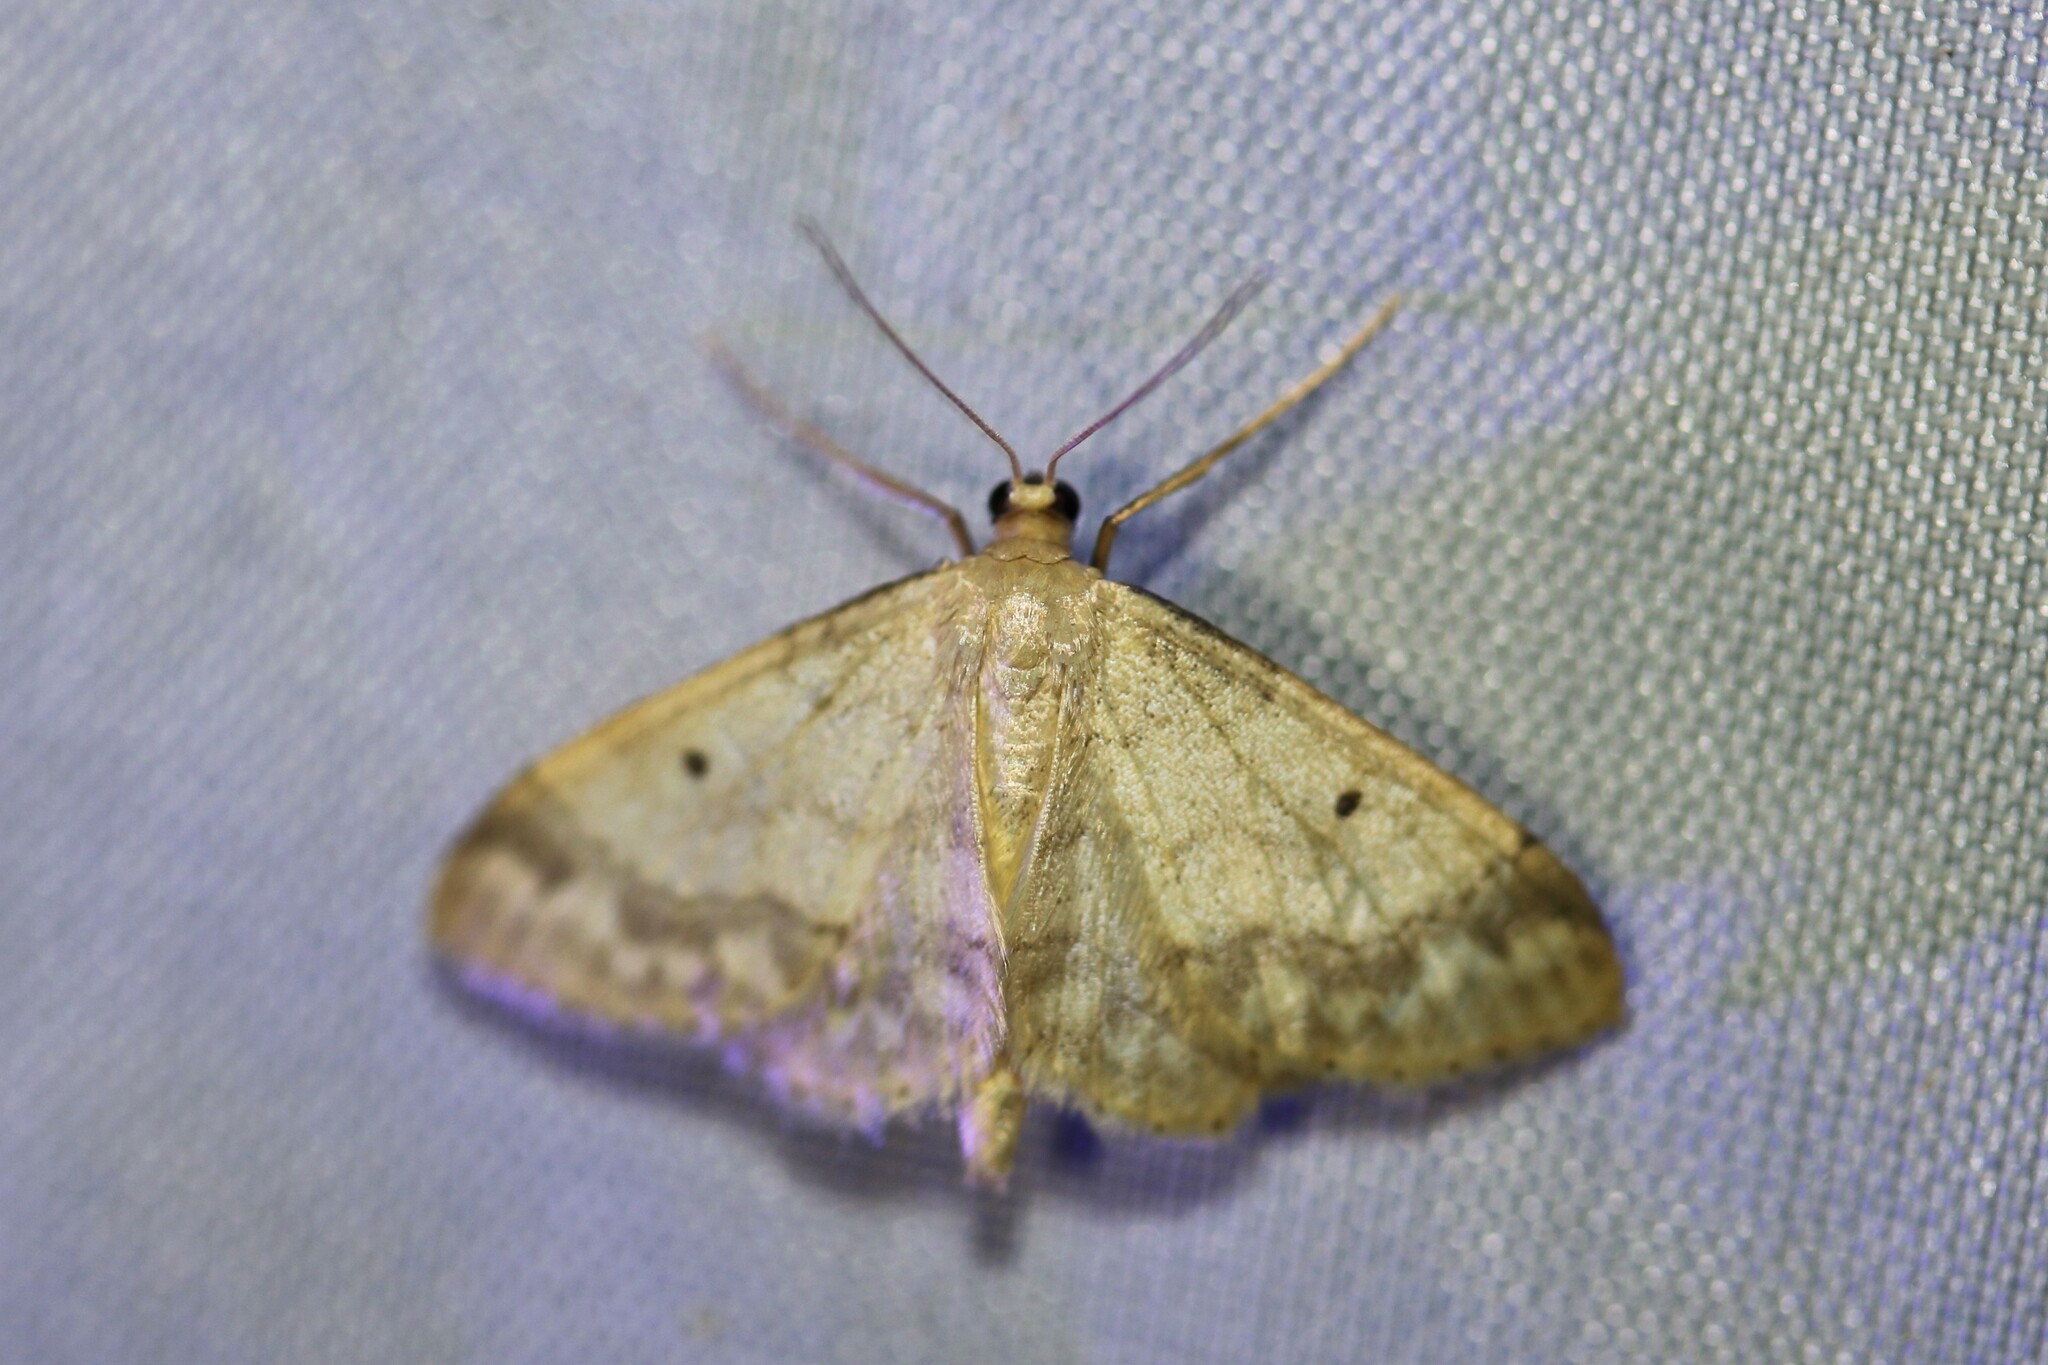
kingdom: Animalia
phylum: Arthropoda
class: Insecta
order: Lepidoptera
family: Geometridae
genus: Idaea
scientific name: Idaea biselata
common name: Small fan-footed wave
